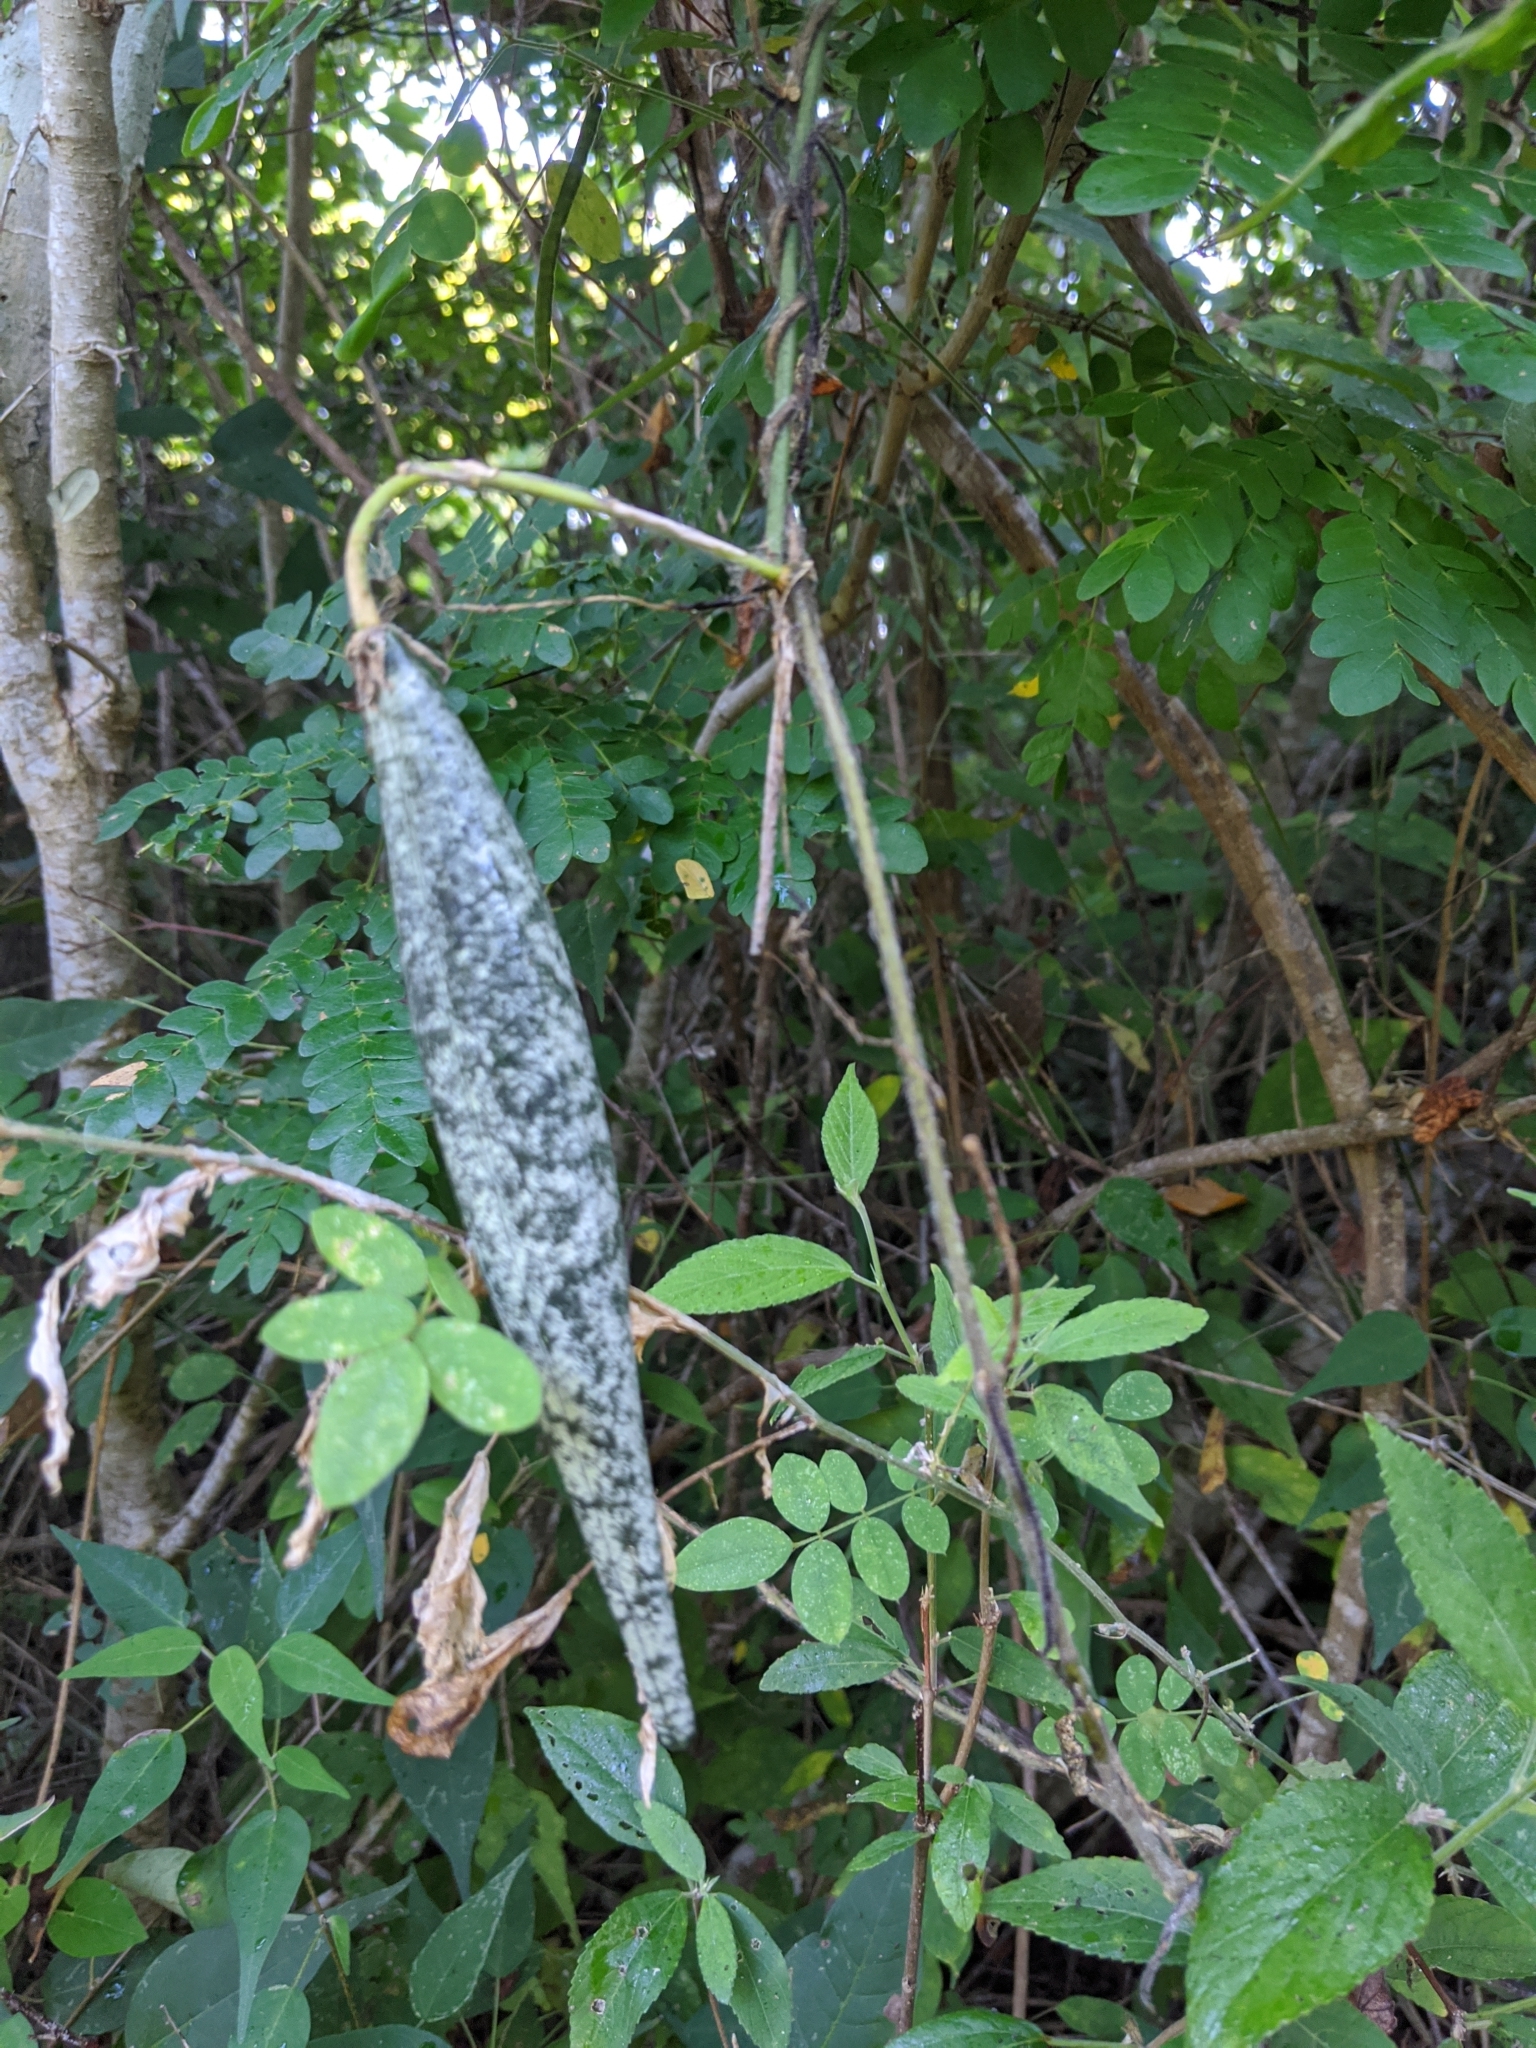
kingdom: Plantae
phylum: Tracheophyta
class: Magnoliopsida
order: Gentianales
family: Apocynaceae
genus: Polystemma
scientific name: Polystemma guatemalense
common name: Arborescente rattan
